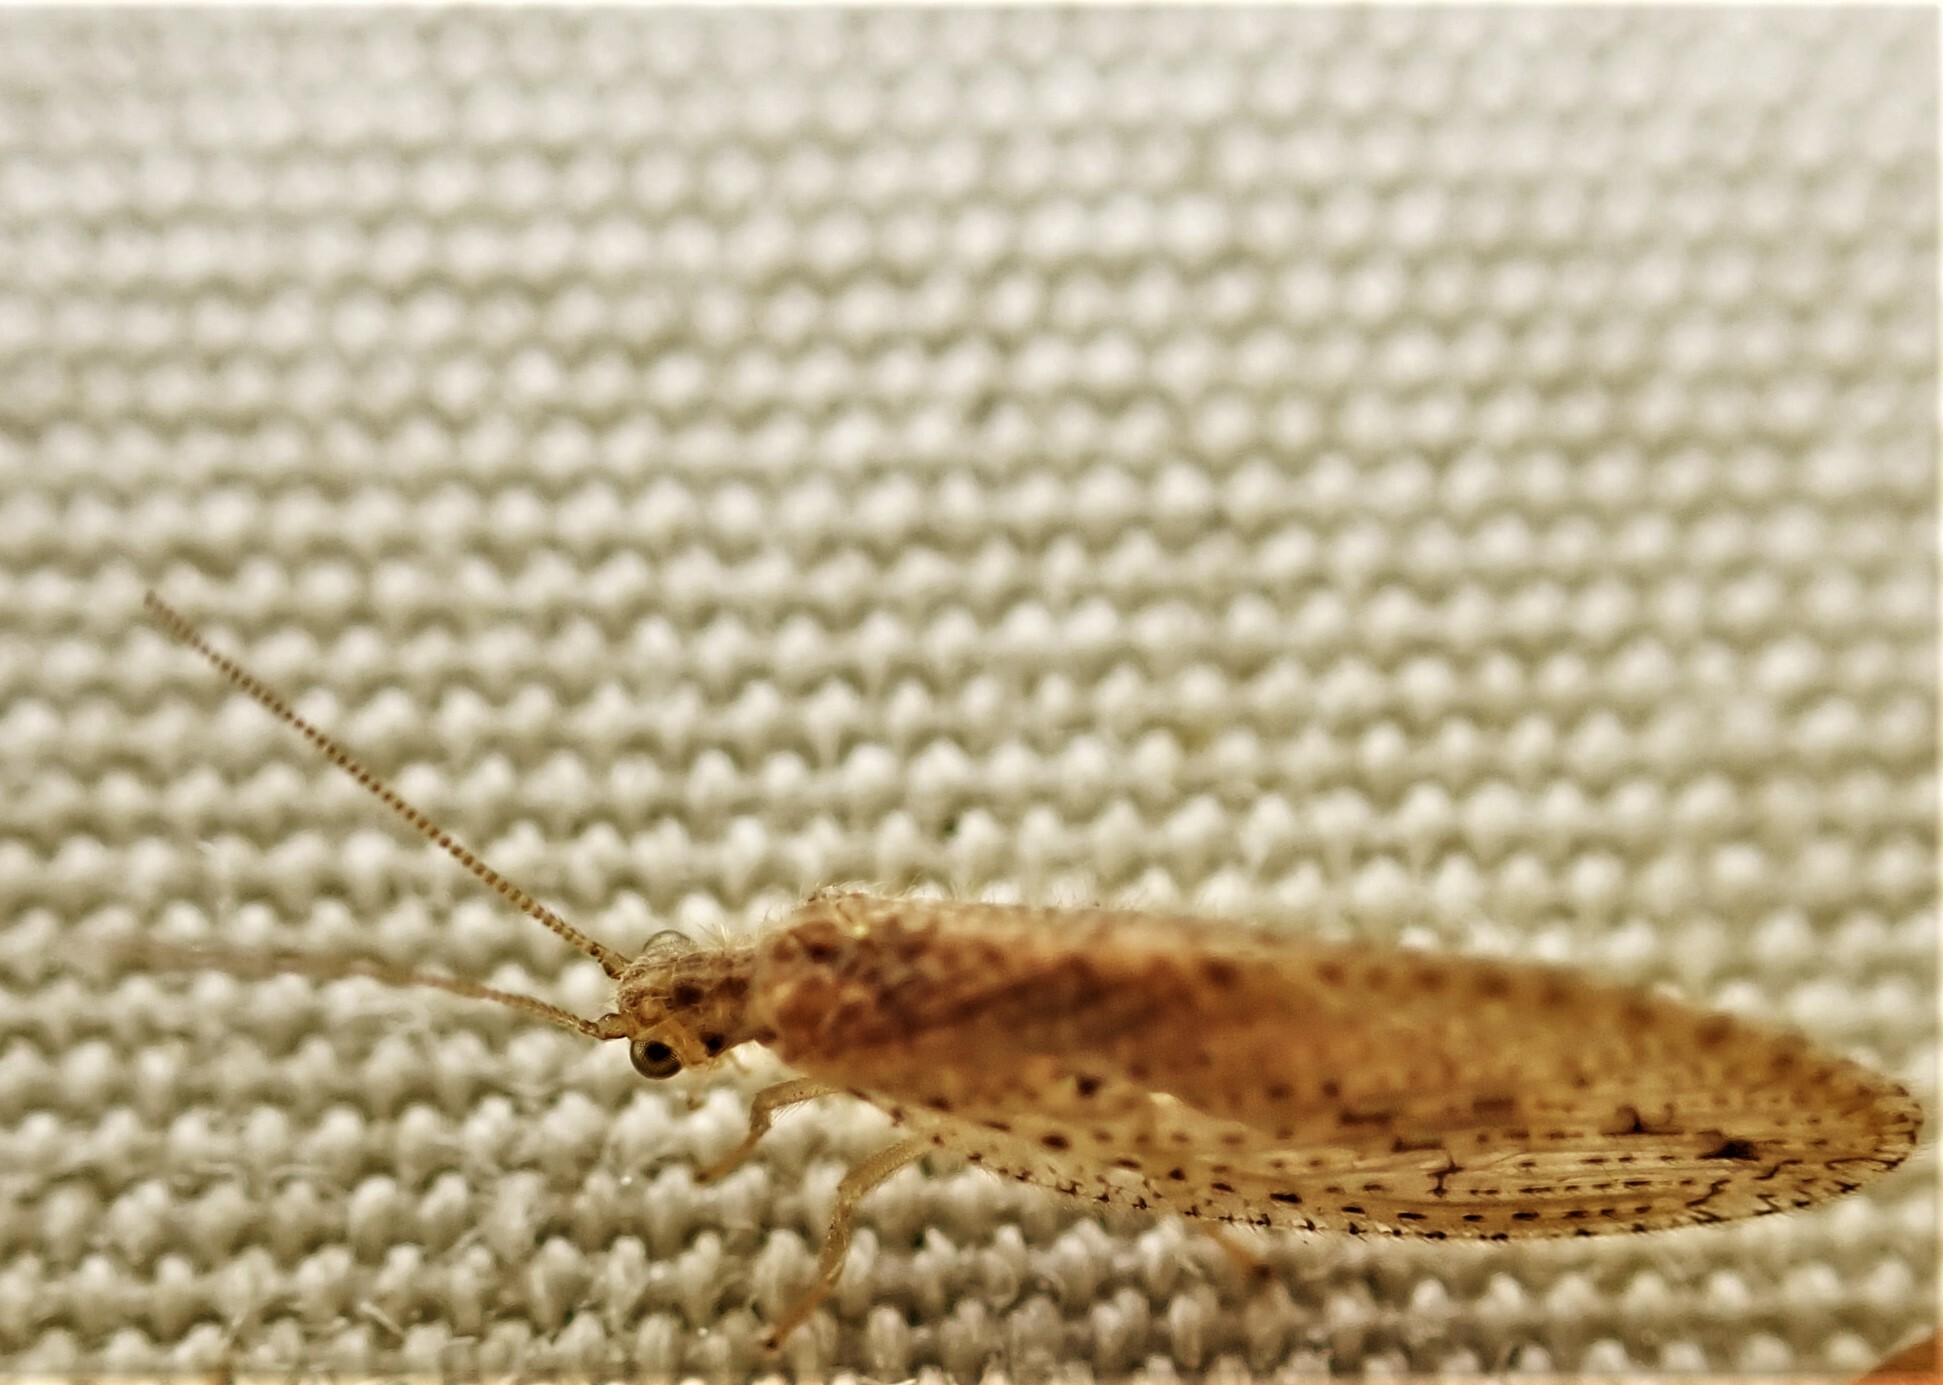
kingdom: Animalia
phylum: Arthropoda
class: Insecta
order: Neuroptera
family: Hemerobiidae
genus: Micromus
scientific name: Micromus tasmaniae
